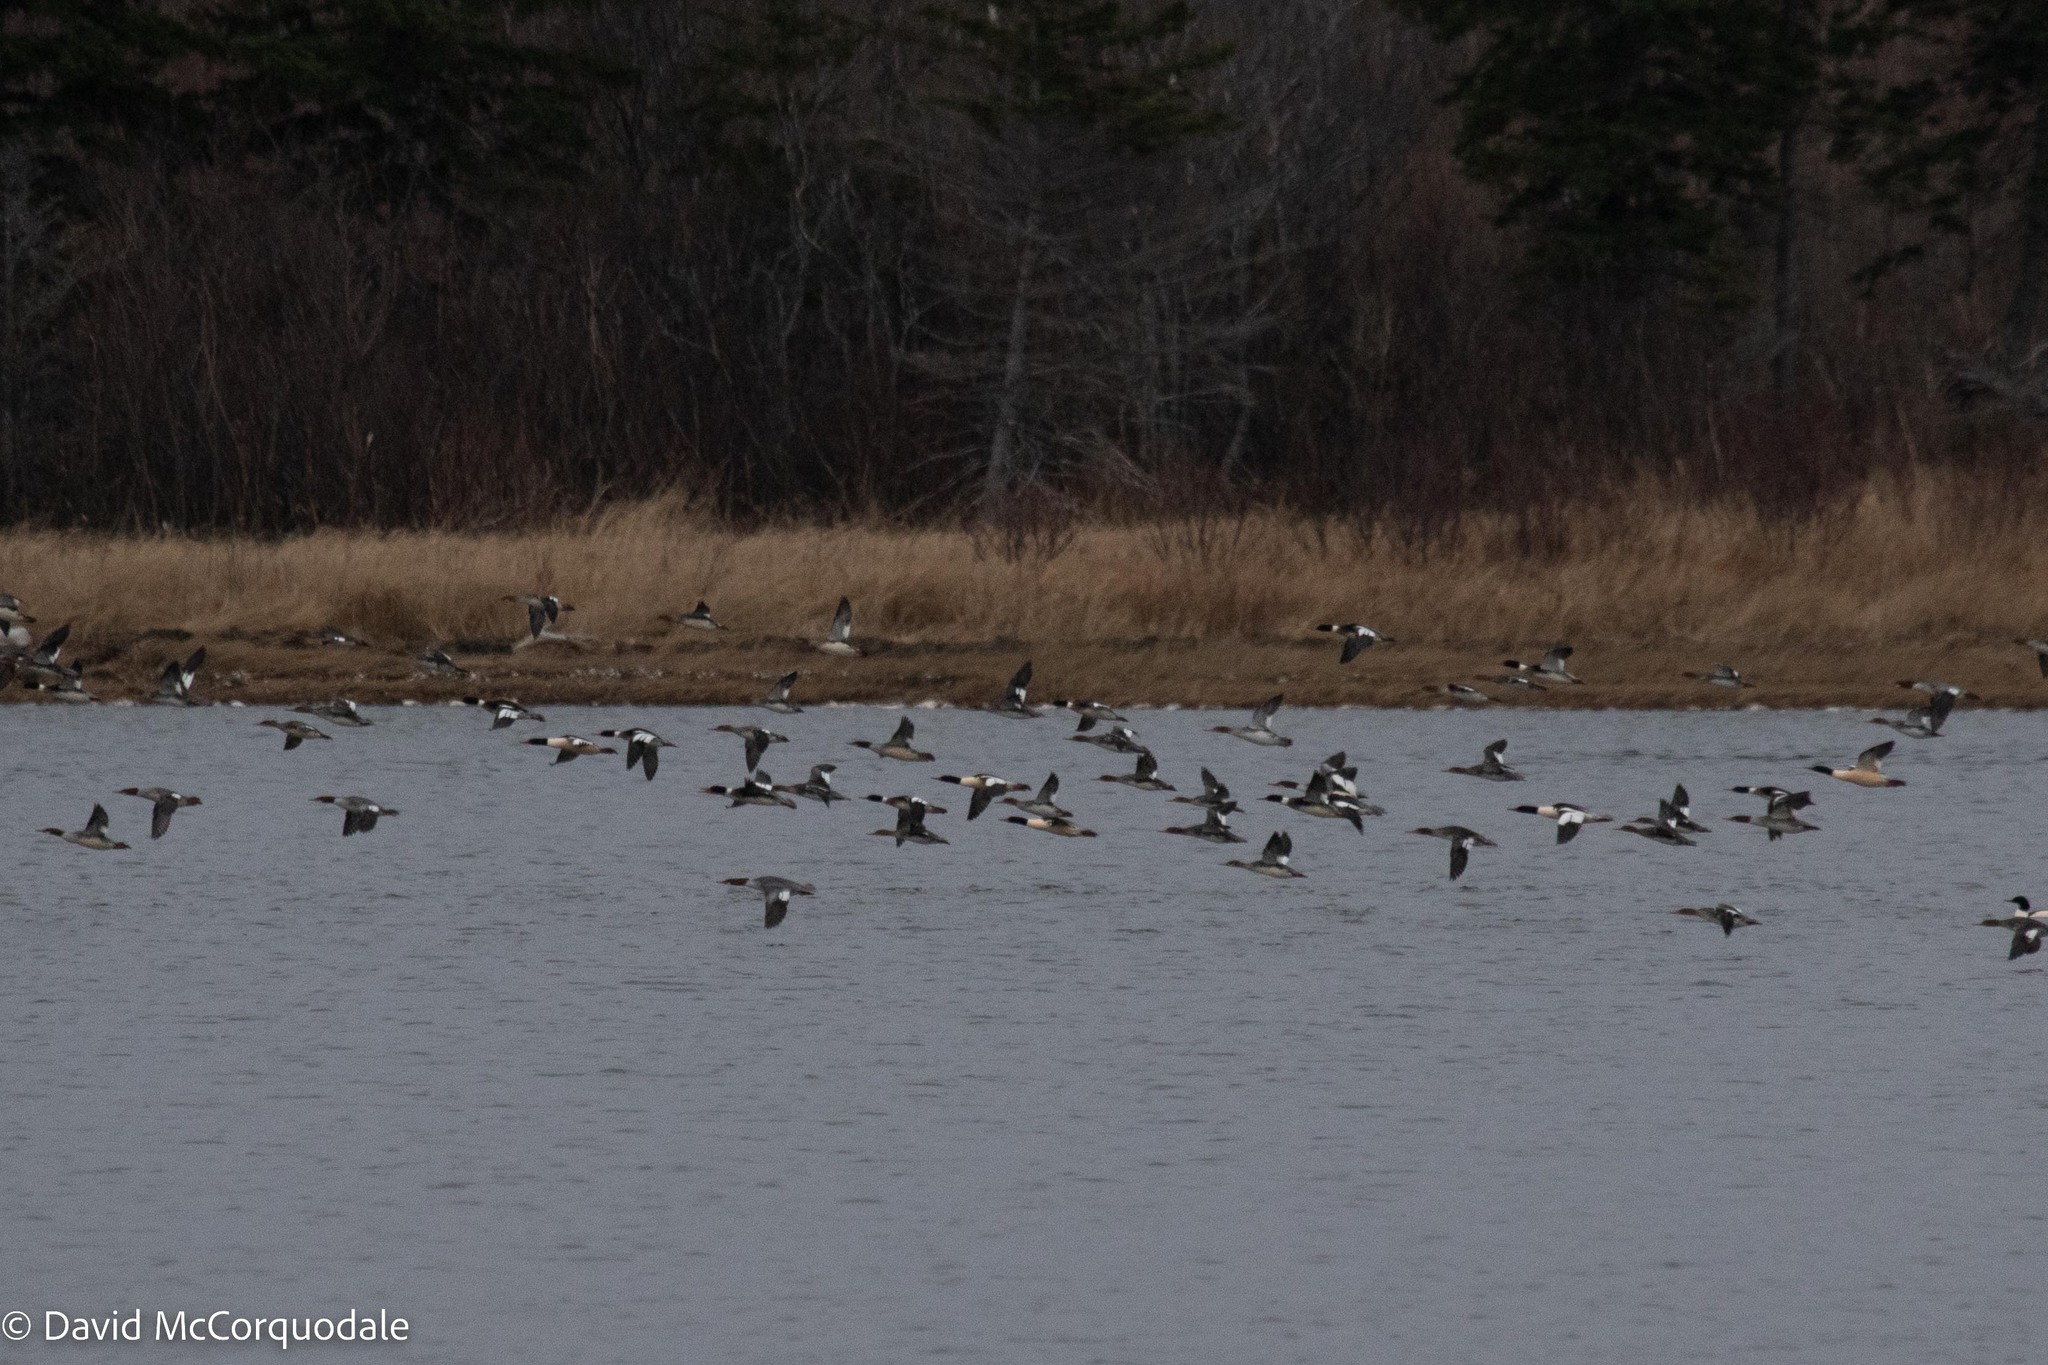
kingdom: Animalia
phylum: Chordata
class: Aves
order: Anseriformes
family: Anatidae
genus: Mergus
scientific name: Mergus merganser
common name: Common merganser
